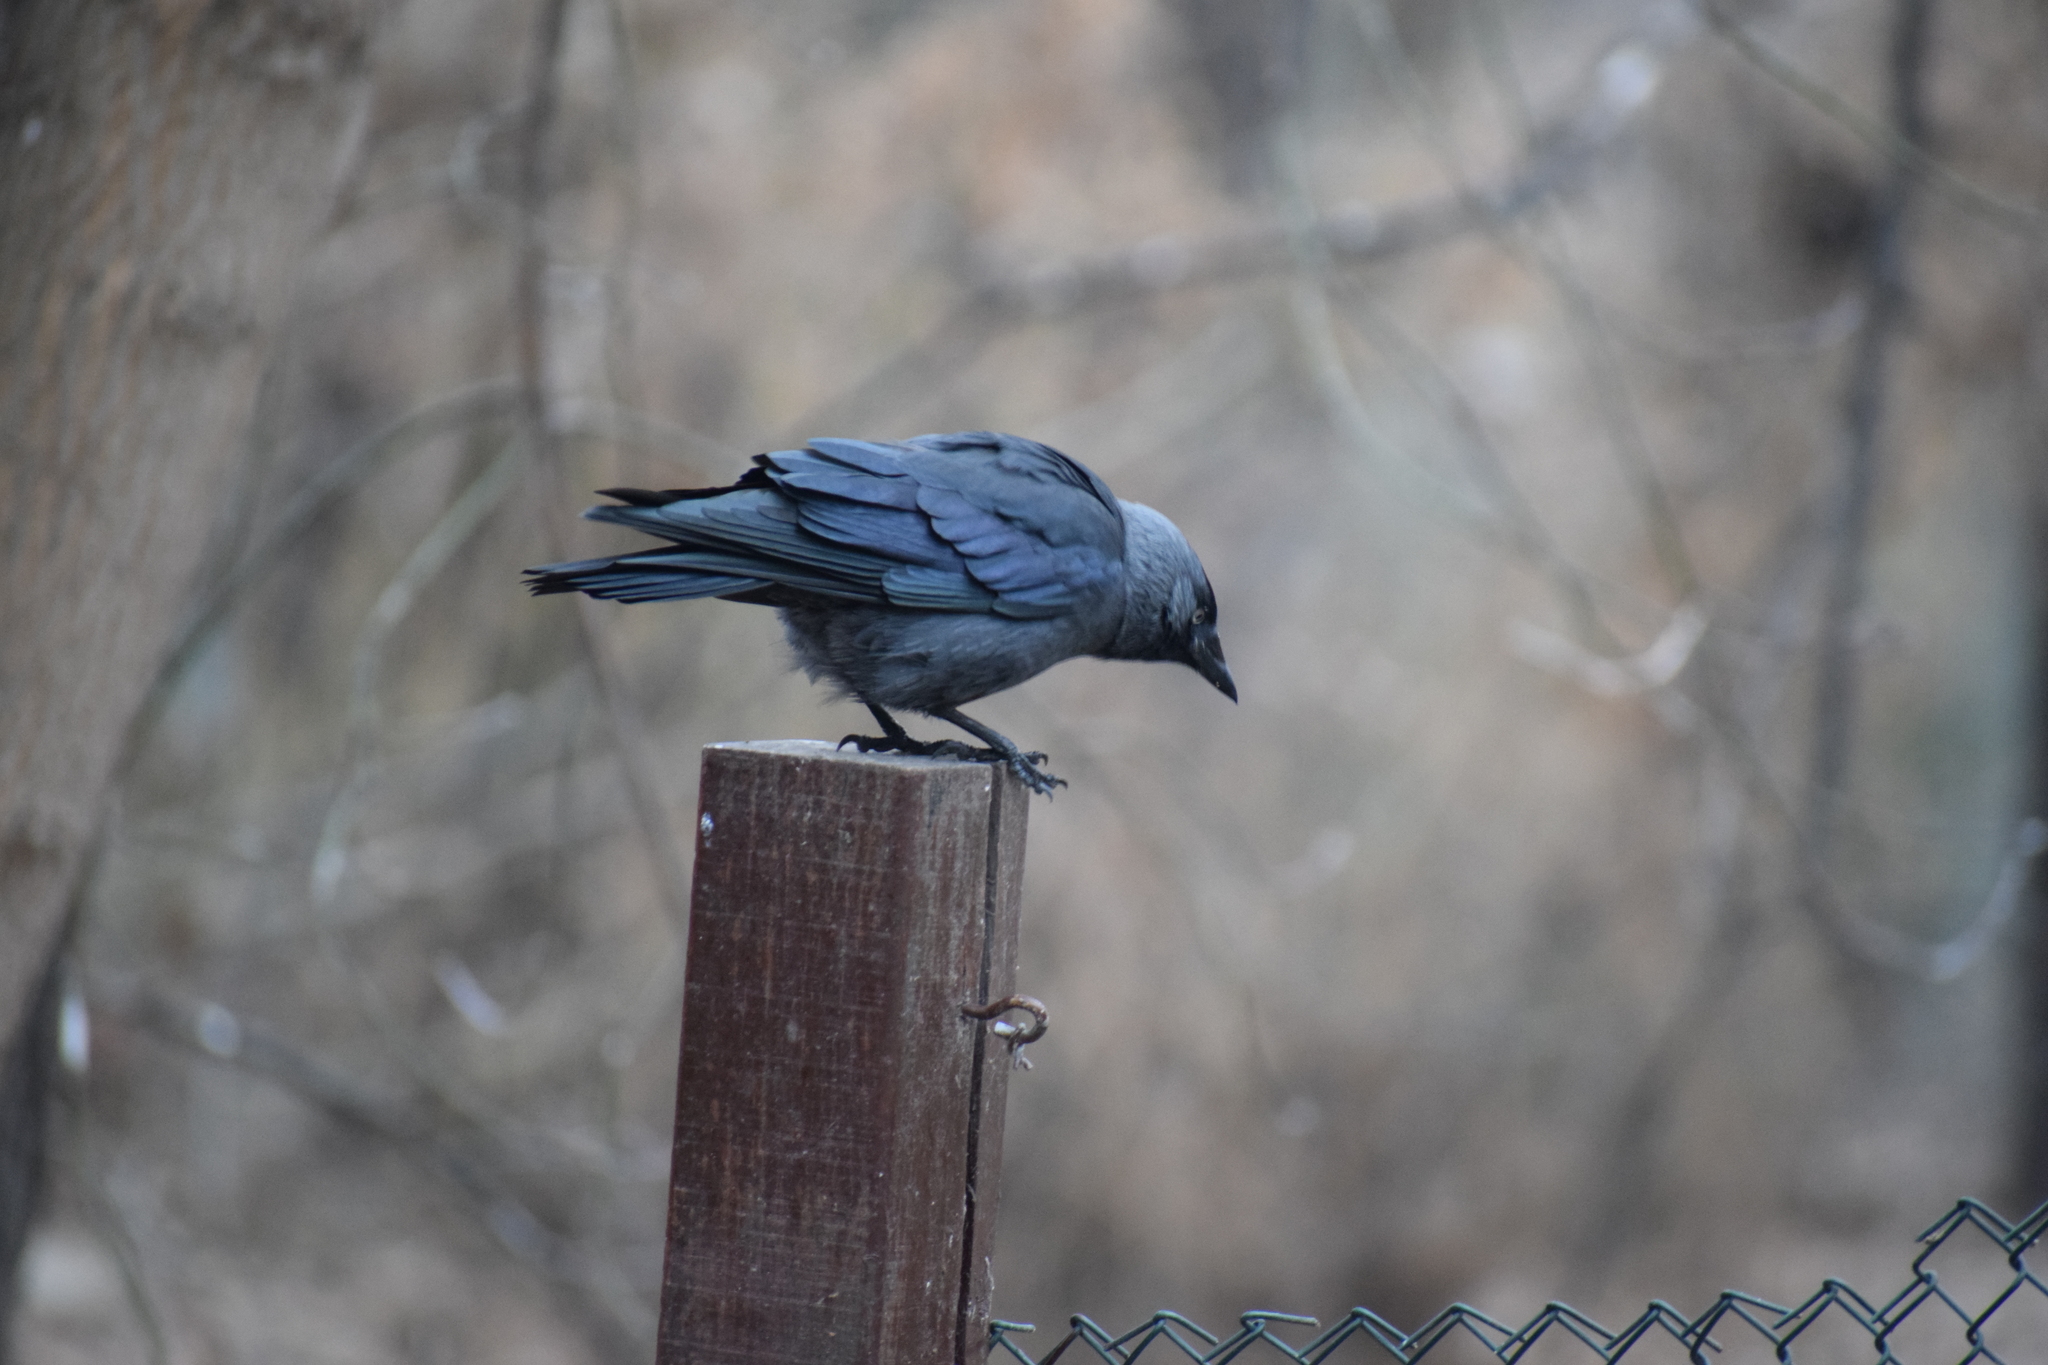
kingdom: Animalia
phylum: Chordata
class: Aves
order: Passeriformes
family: Corvidae
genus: Coloeus
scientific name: Coloeus monedula
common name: Western jackdaw
